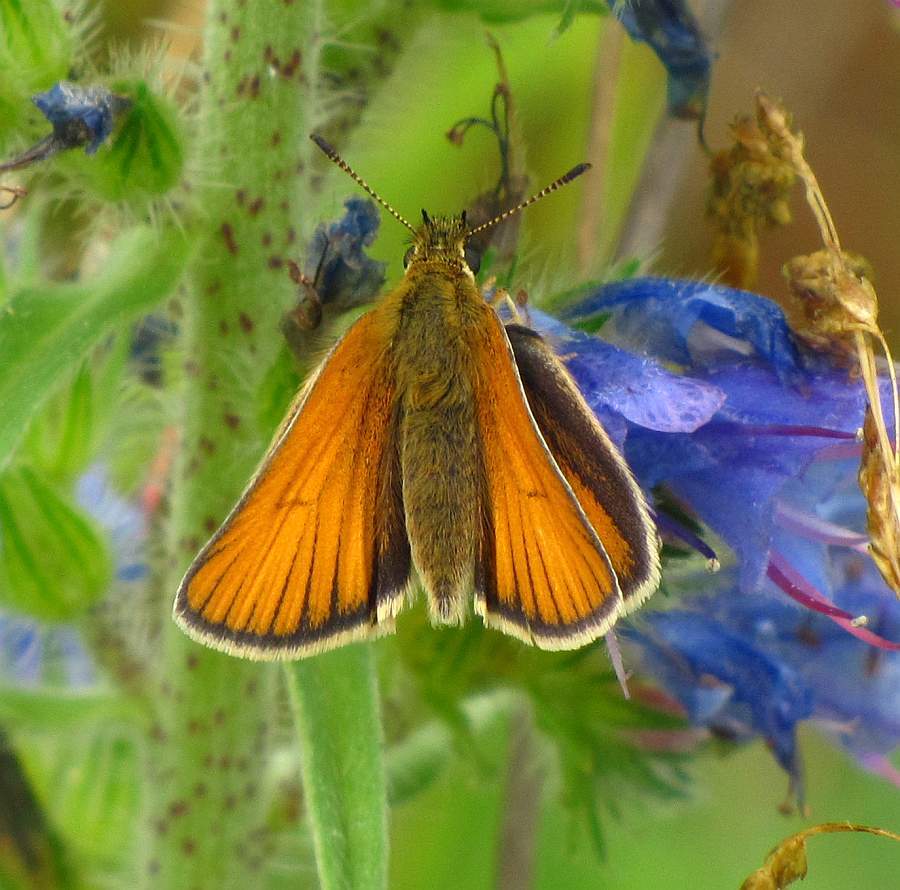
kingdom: Animalia
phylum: Arthropoda
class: Insecta
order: Lepidoptera
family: Hesperiidae
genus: Thymelicus
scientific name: Thymelicus lineola
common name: Essex skipper
